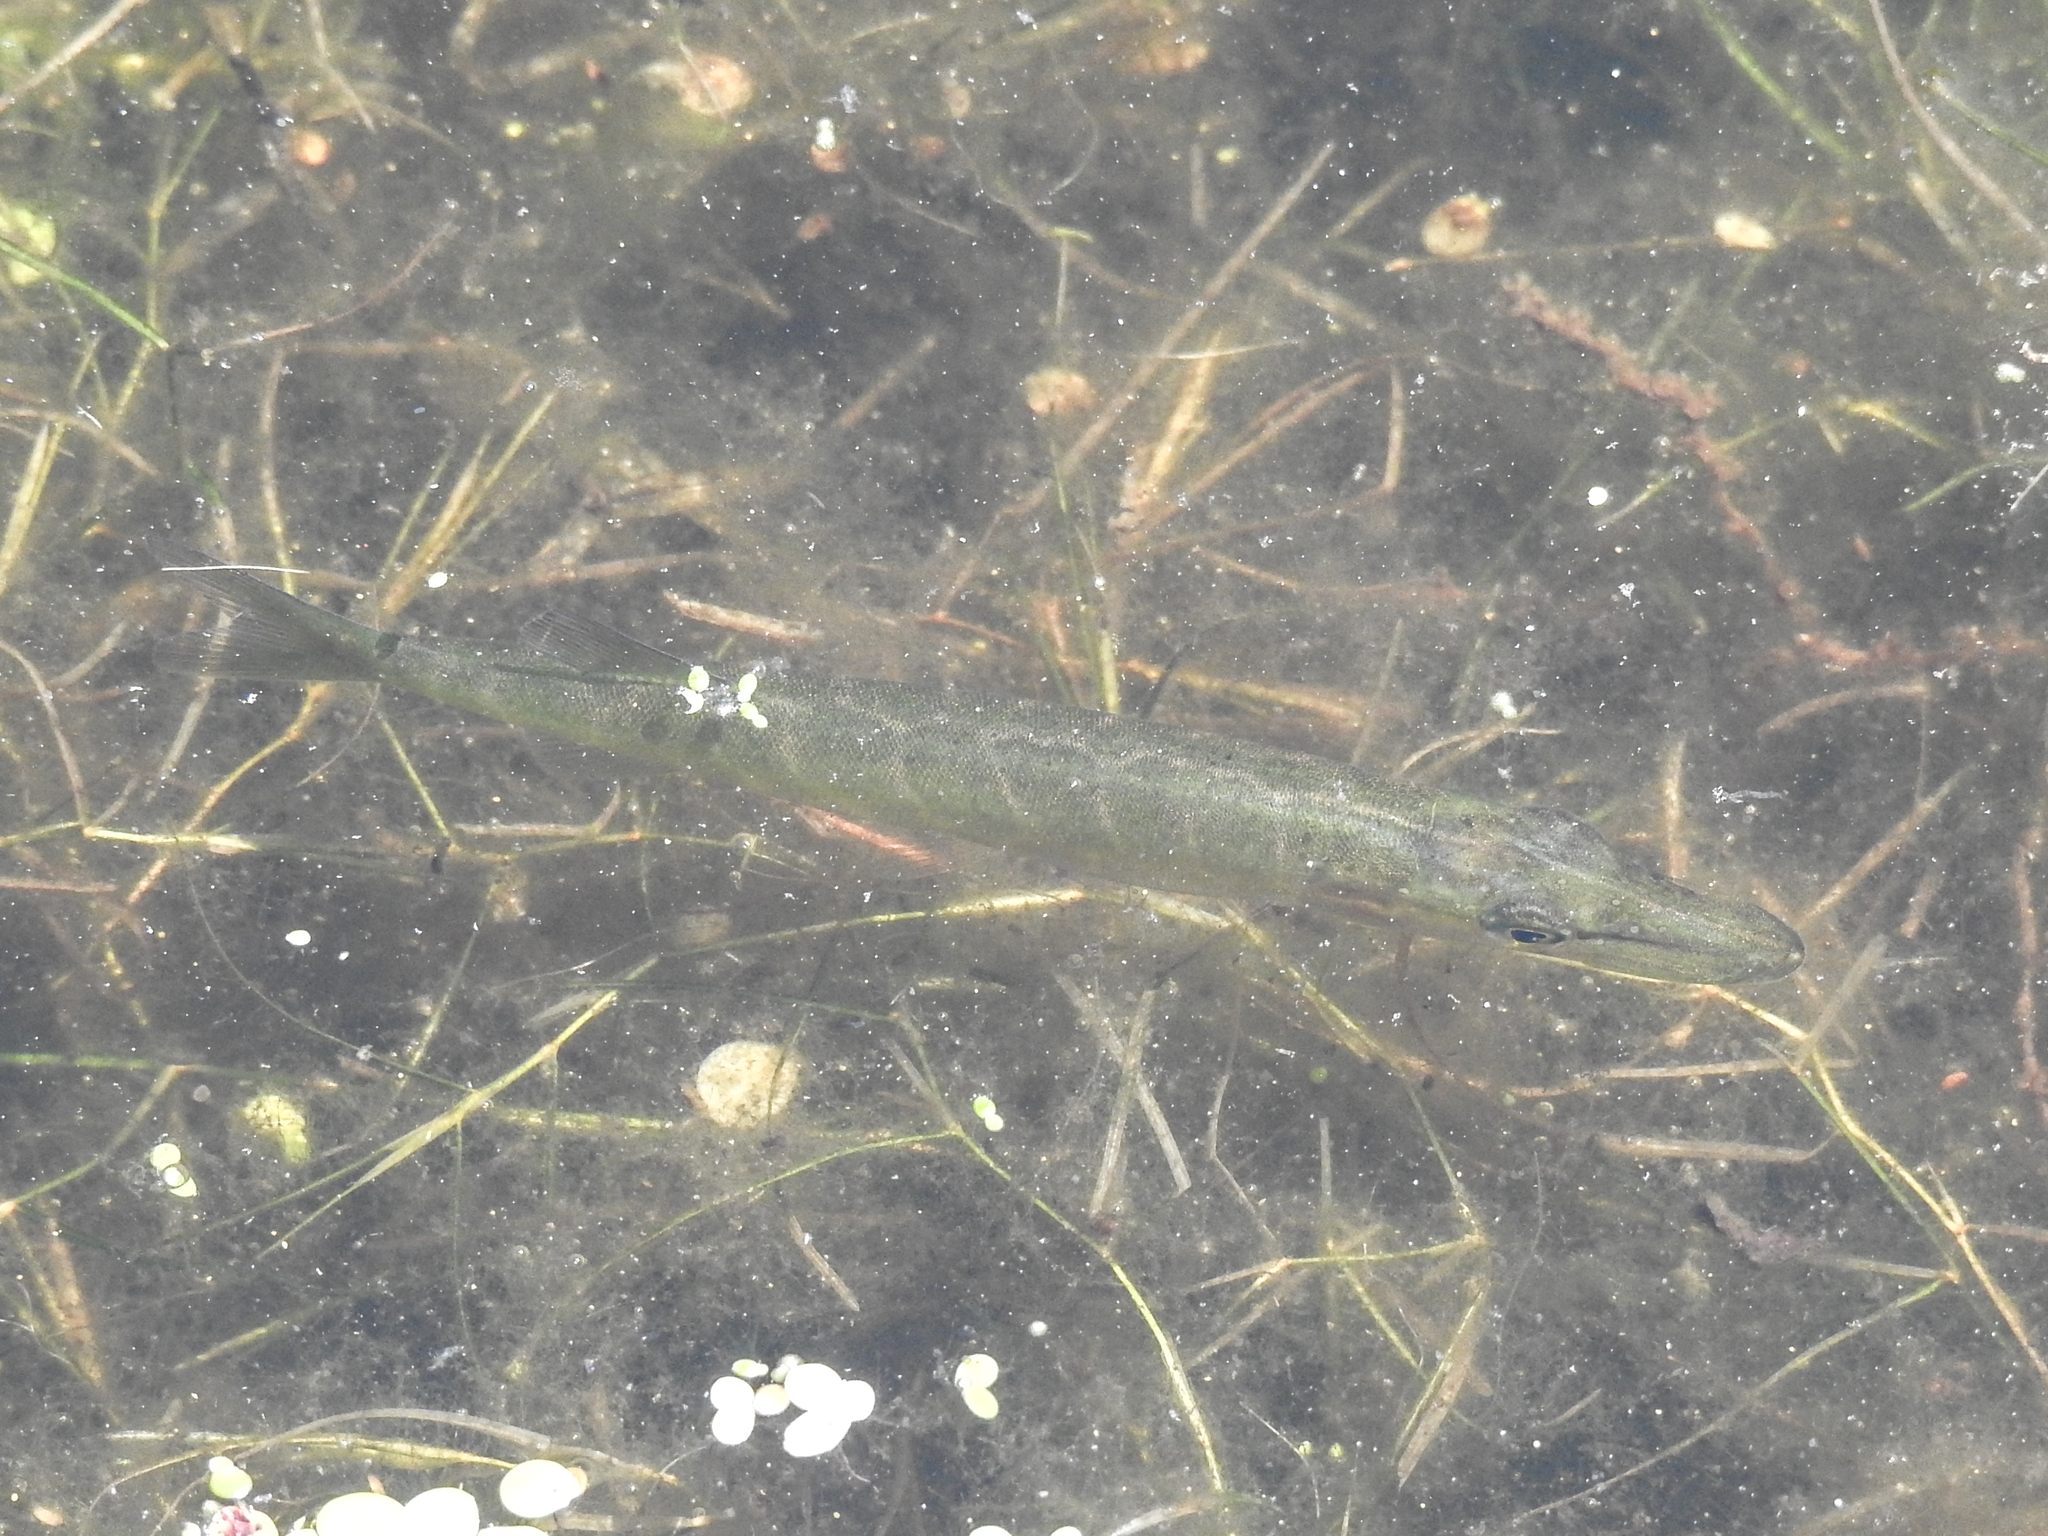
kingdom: Animalia
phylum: Chordata
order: Esociformes
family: Esocidae
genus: Esox
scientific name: Esox americanus
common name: Redfin pickerel
